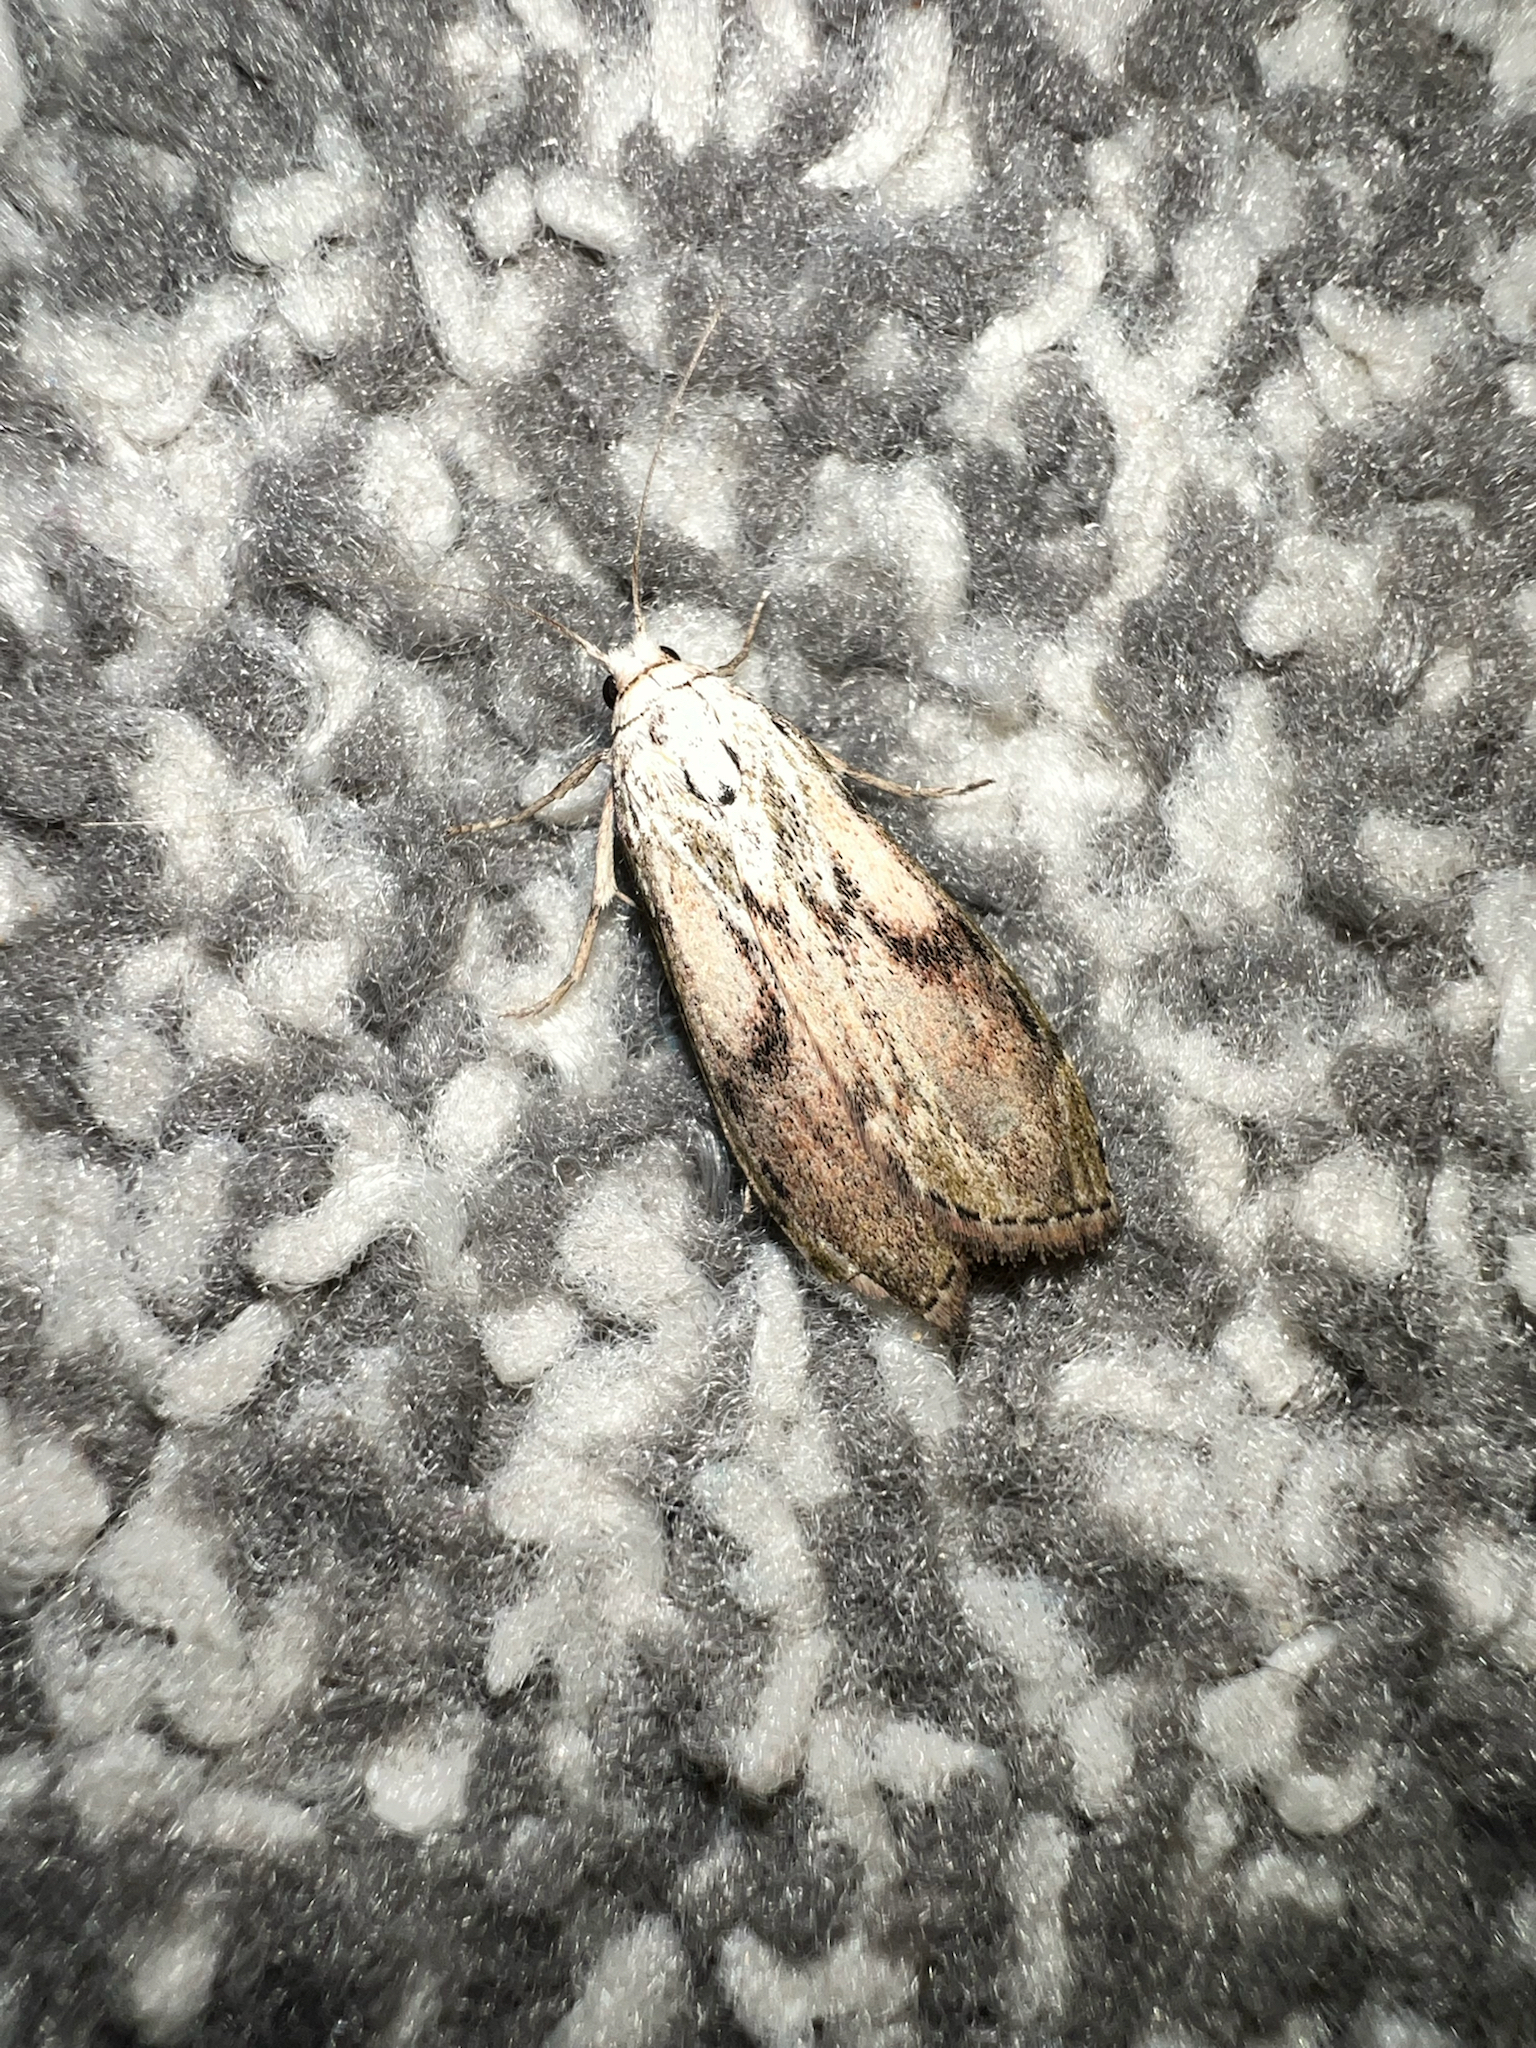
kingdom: Animalia
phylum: Arthropoda
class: Insecta
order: Lepidoptera
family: Pyralidae
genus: Aphomia
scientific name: Aphomia sociella
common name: Bee moth
